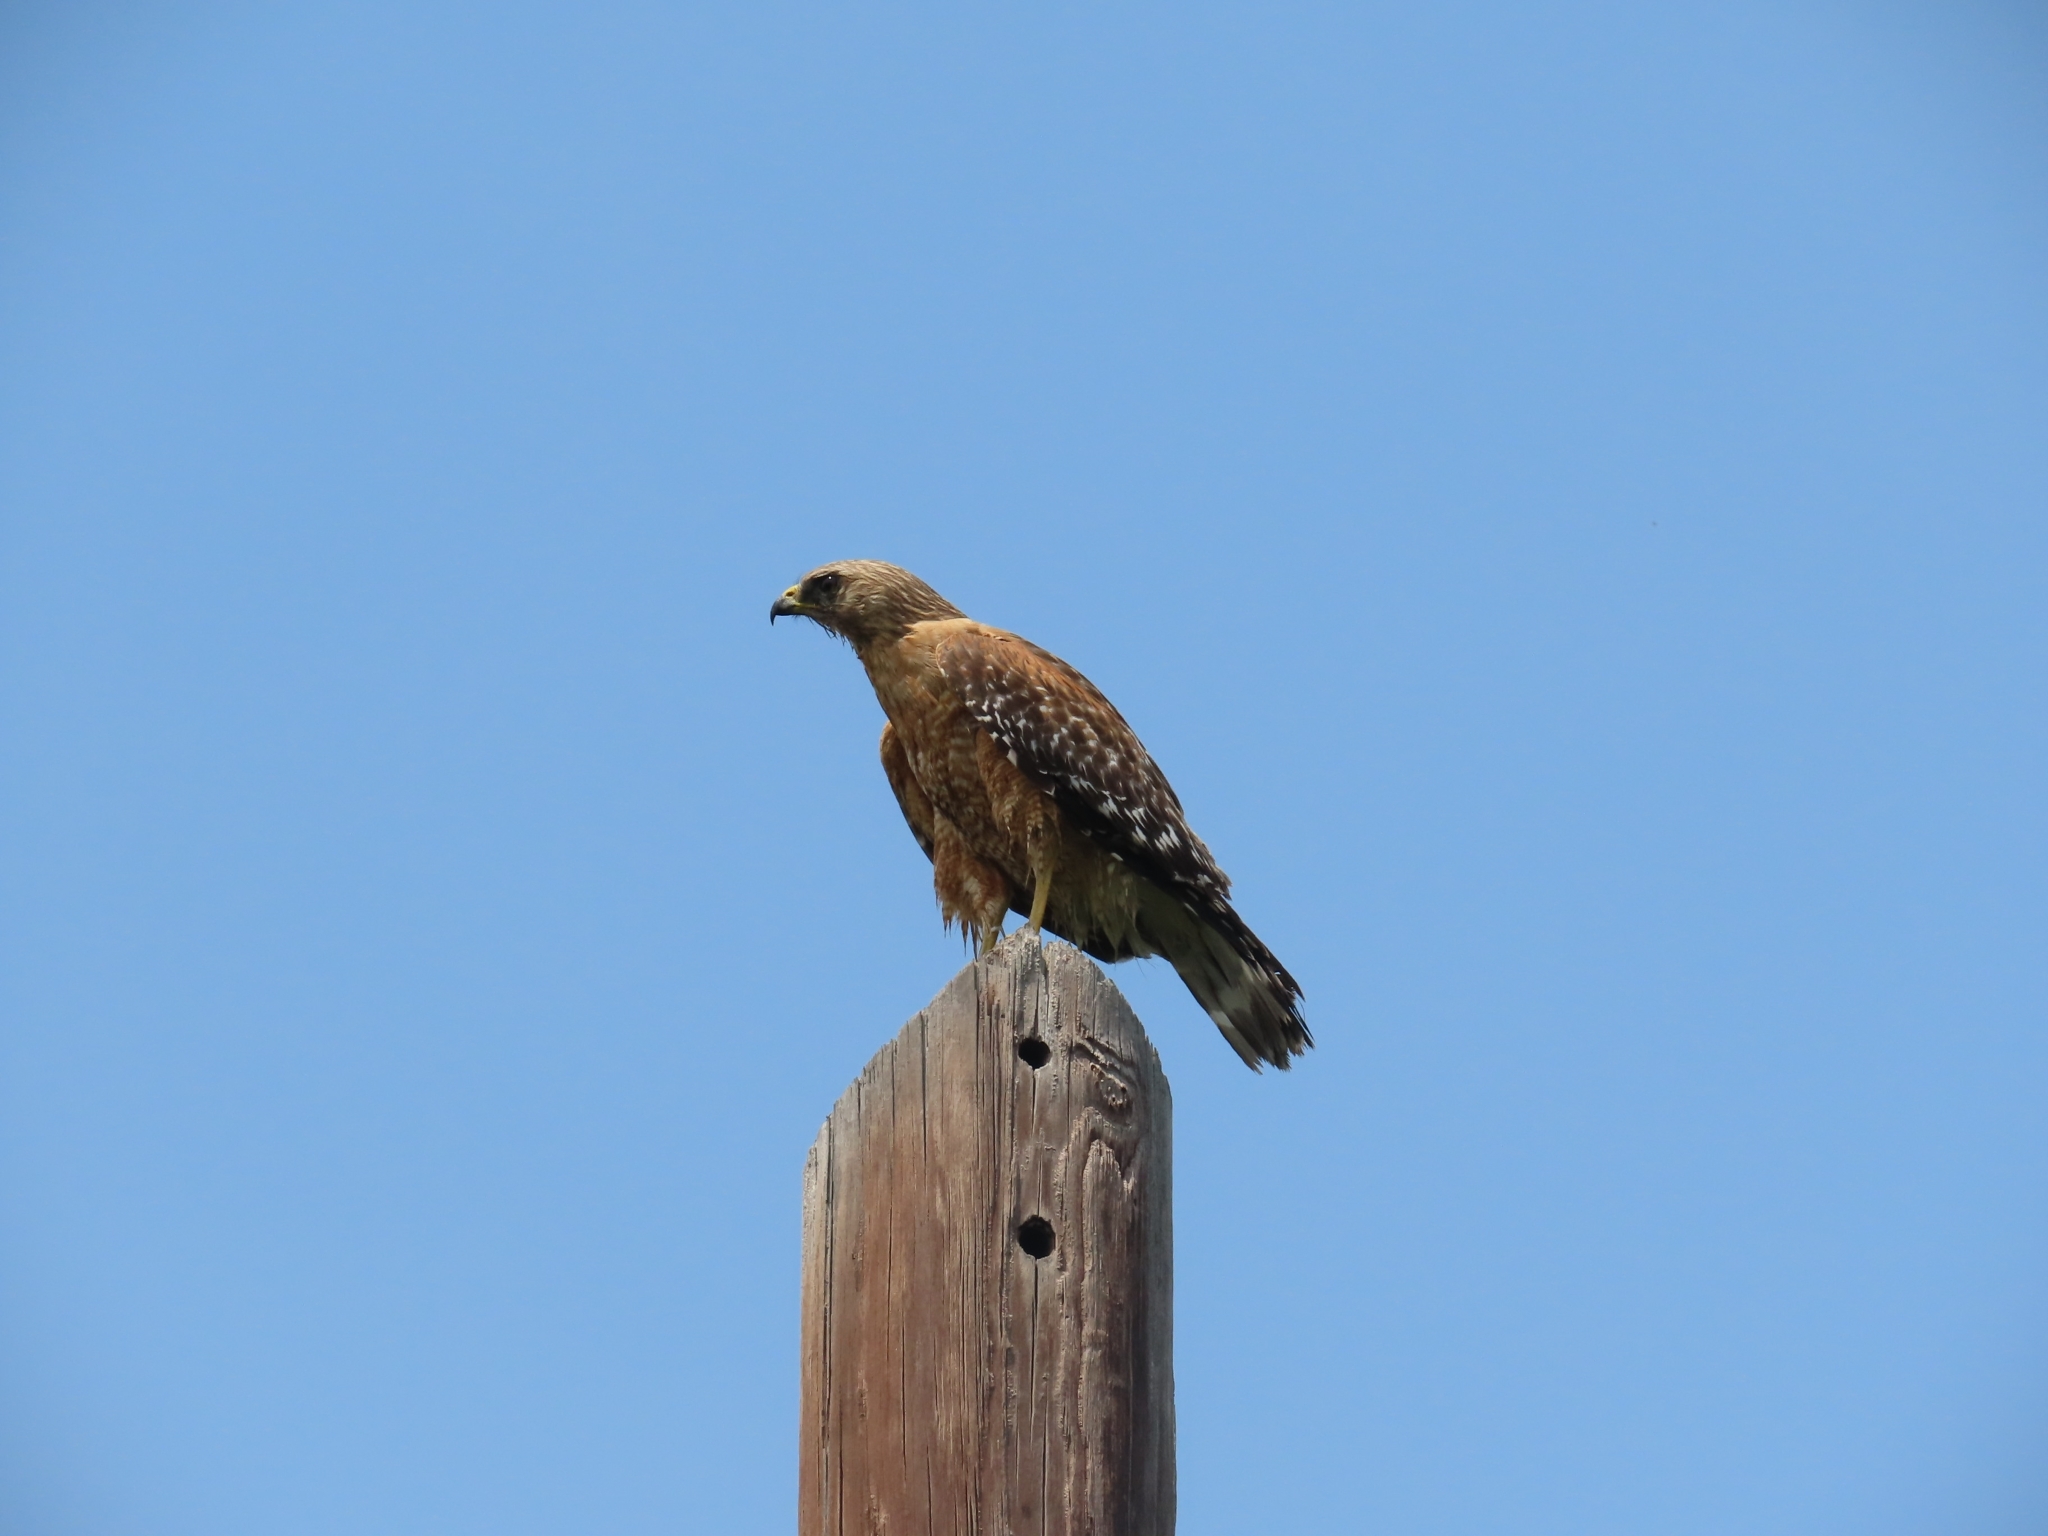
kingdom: Animalia
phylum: Chordata
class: Aves
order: Accipitriformes
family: Accipitridae
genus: Buteo
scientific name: Buteo lineatus
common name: Red-shouldered hawk
